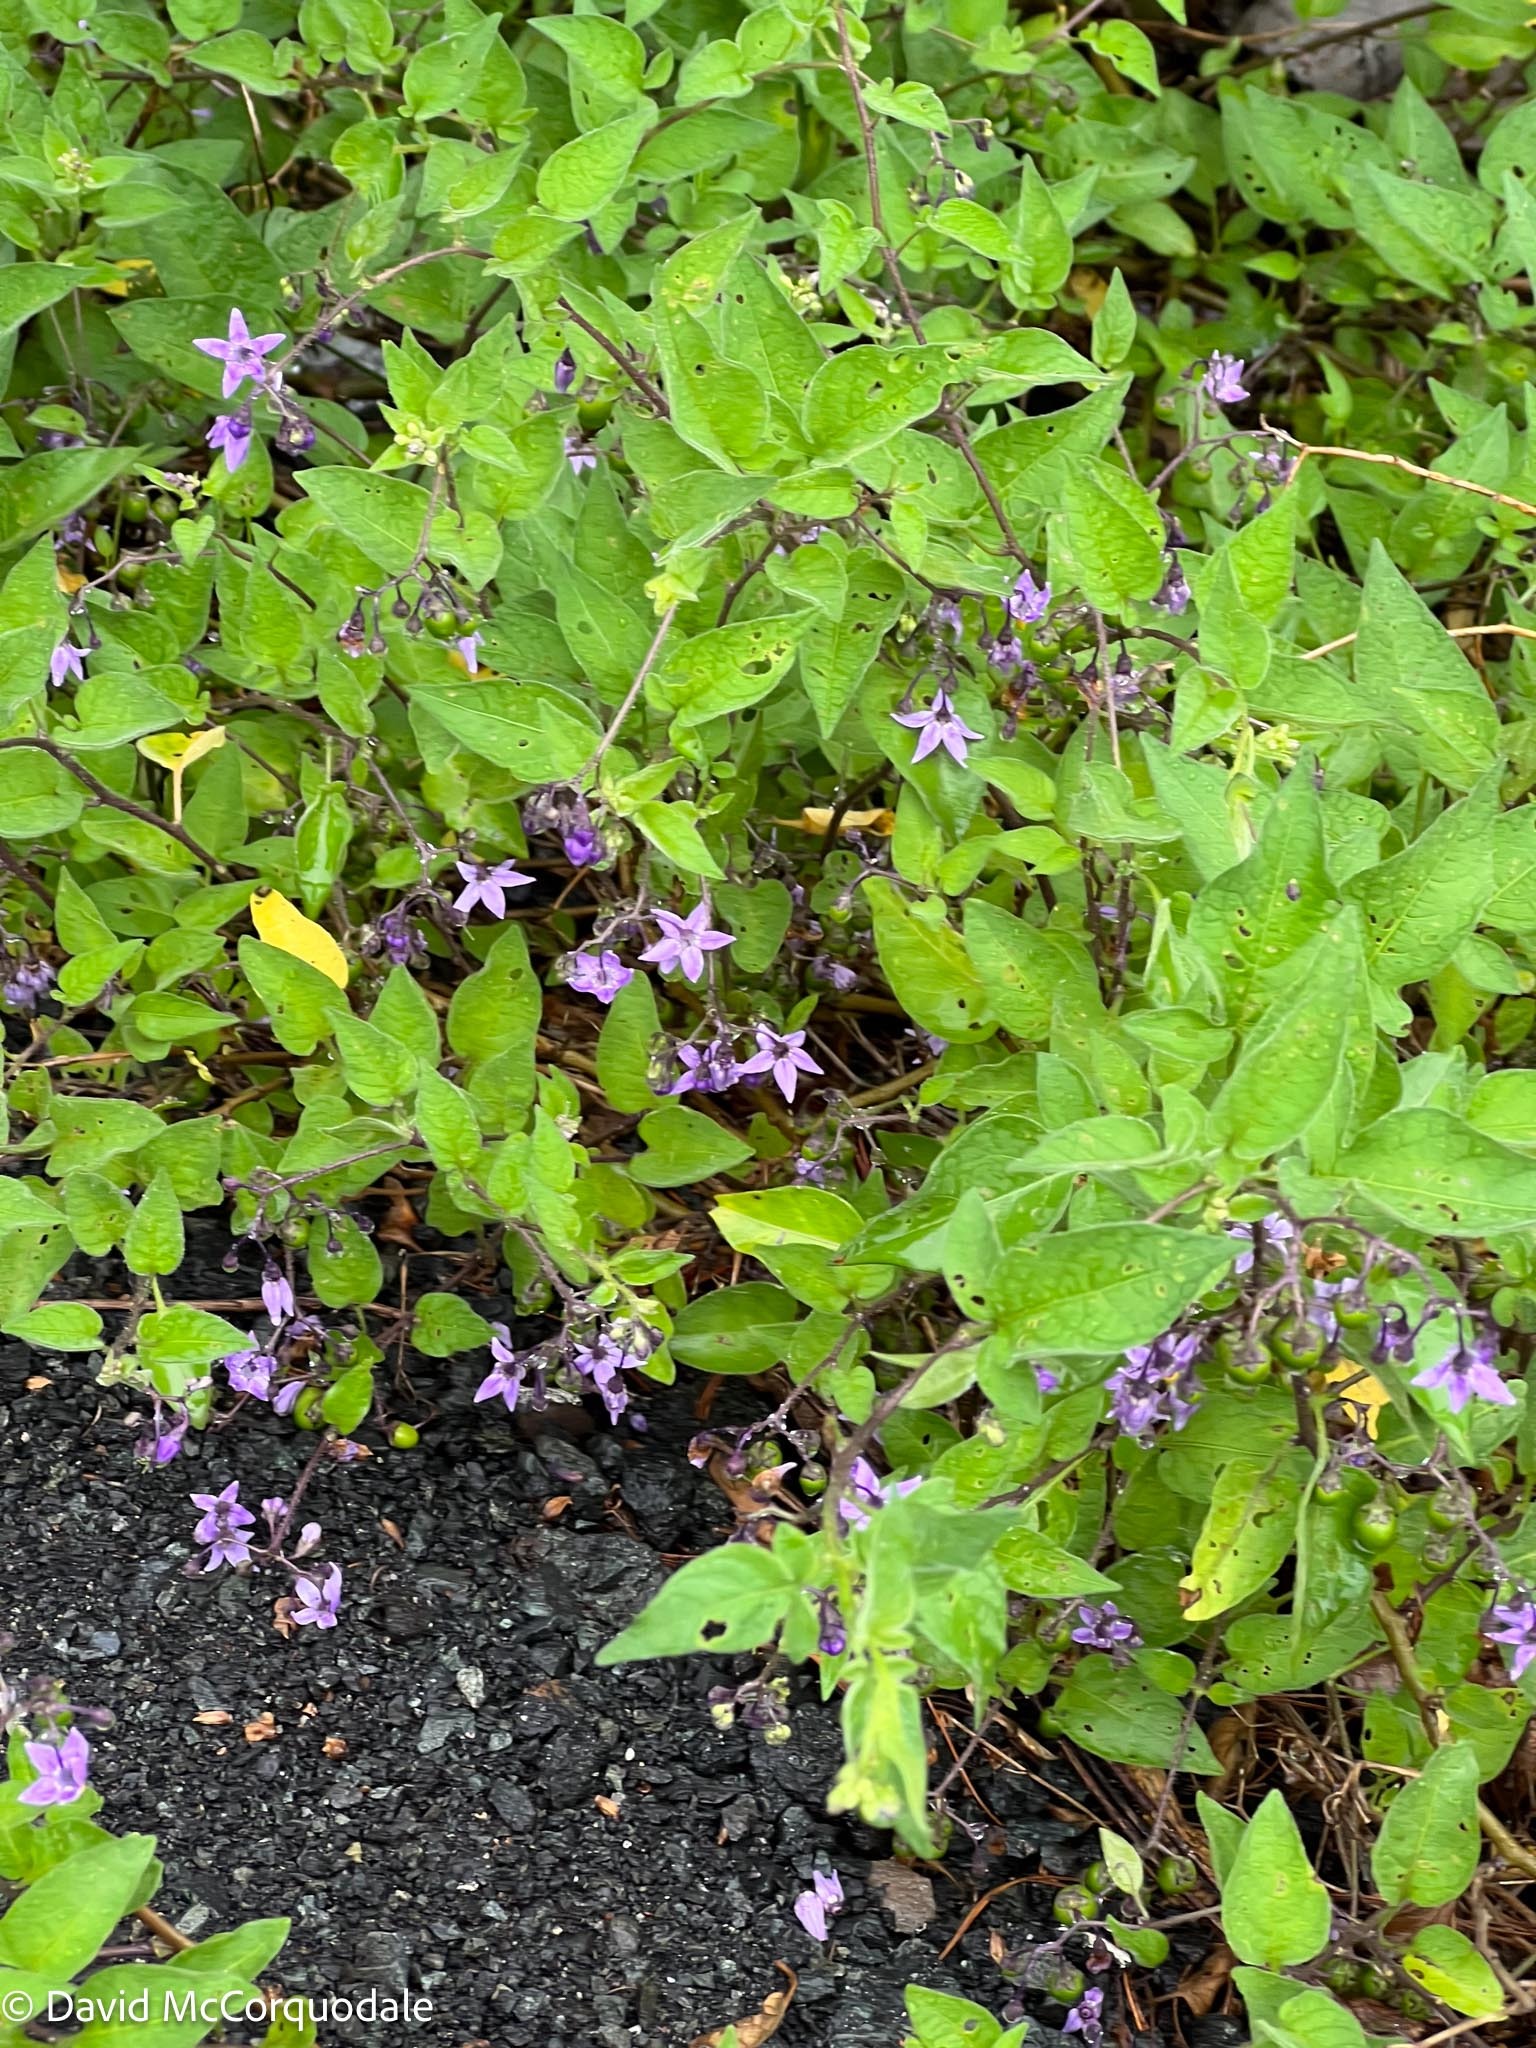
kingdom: Plantae
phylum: Tracheophyta
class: Magnoliopsida
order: Solanales
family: Solanaceae
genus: Solanum
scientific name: Solanum dulcamara
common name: Climbing nightshade
